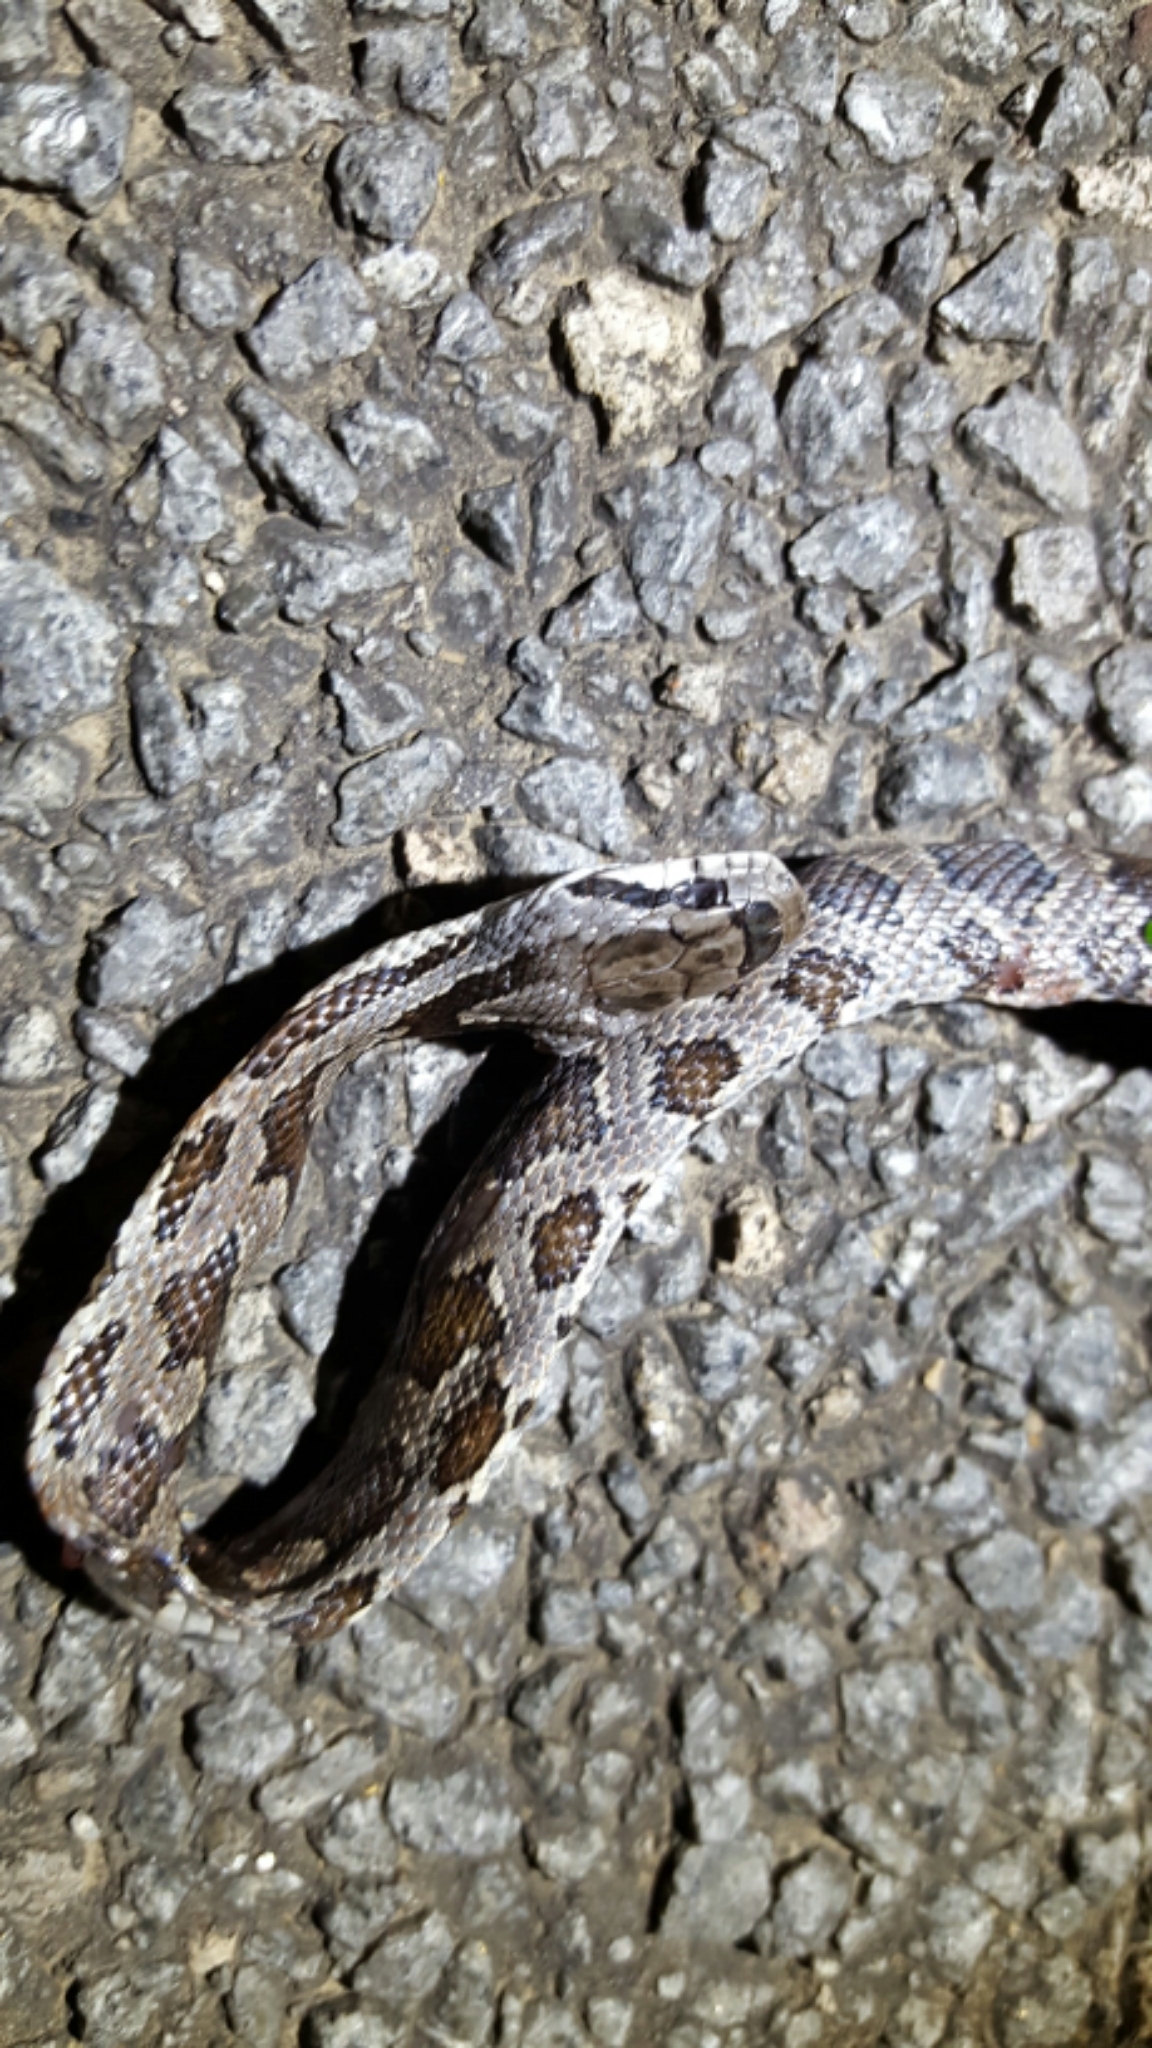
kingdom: Animalia
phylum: Chordata
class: Squamata
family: Colubridae
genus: Pantherophis
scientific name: Pantherophis obsoletus
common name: Black rat snake
